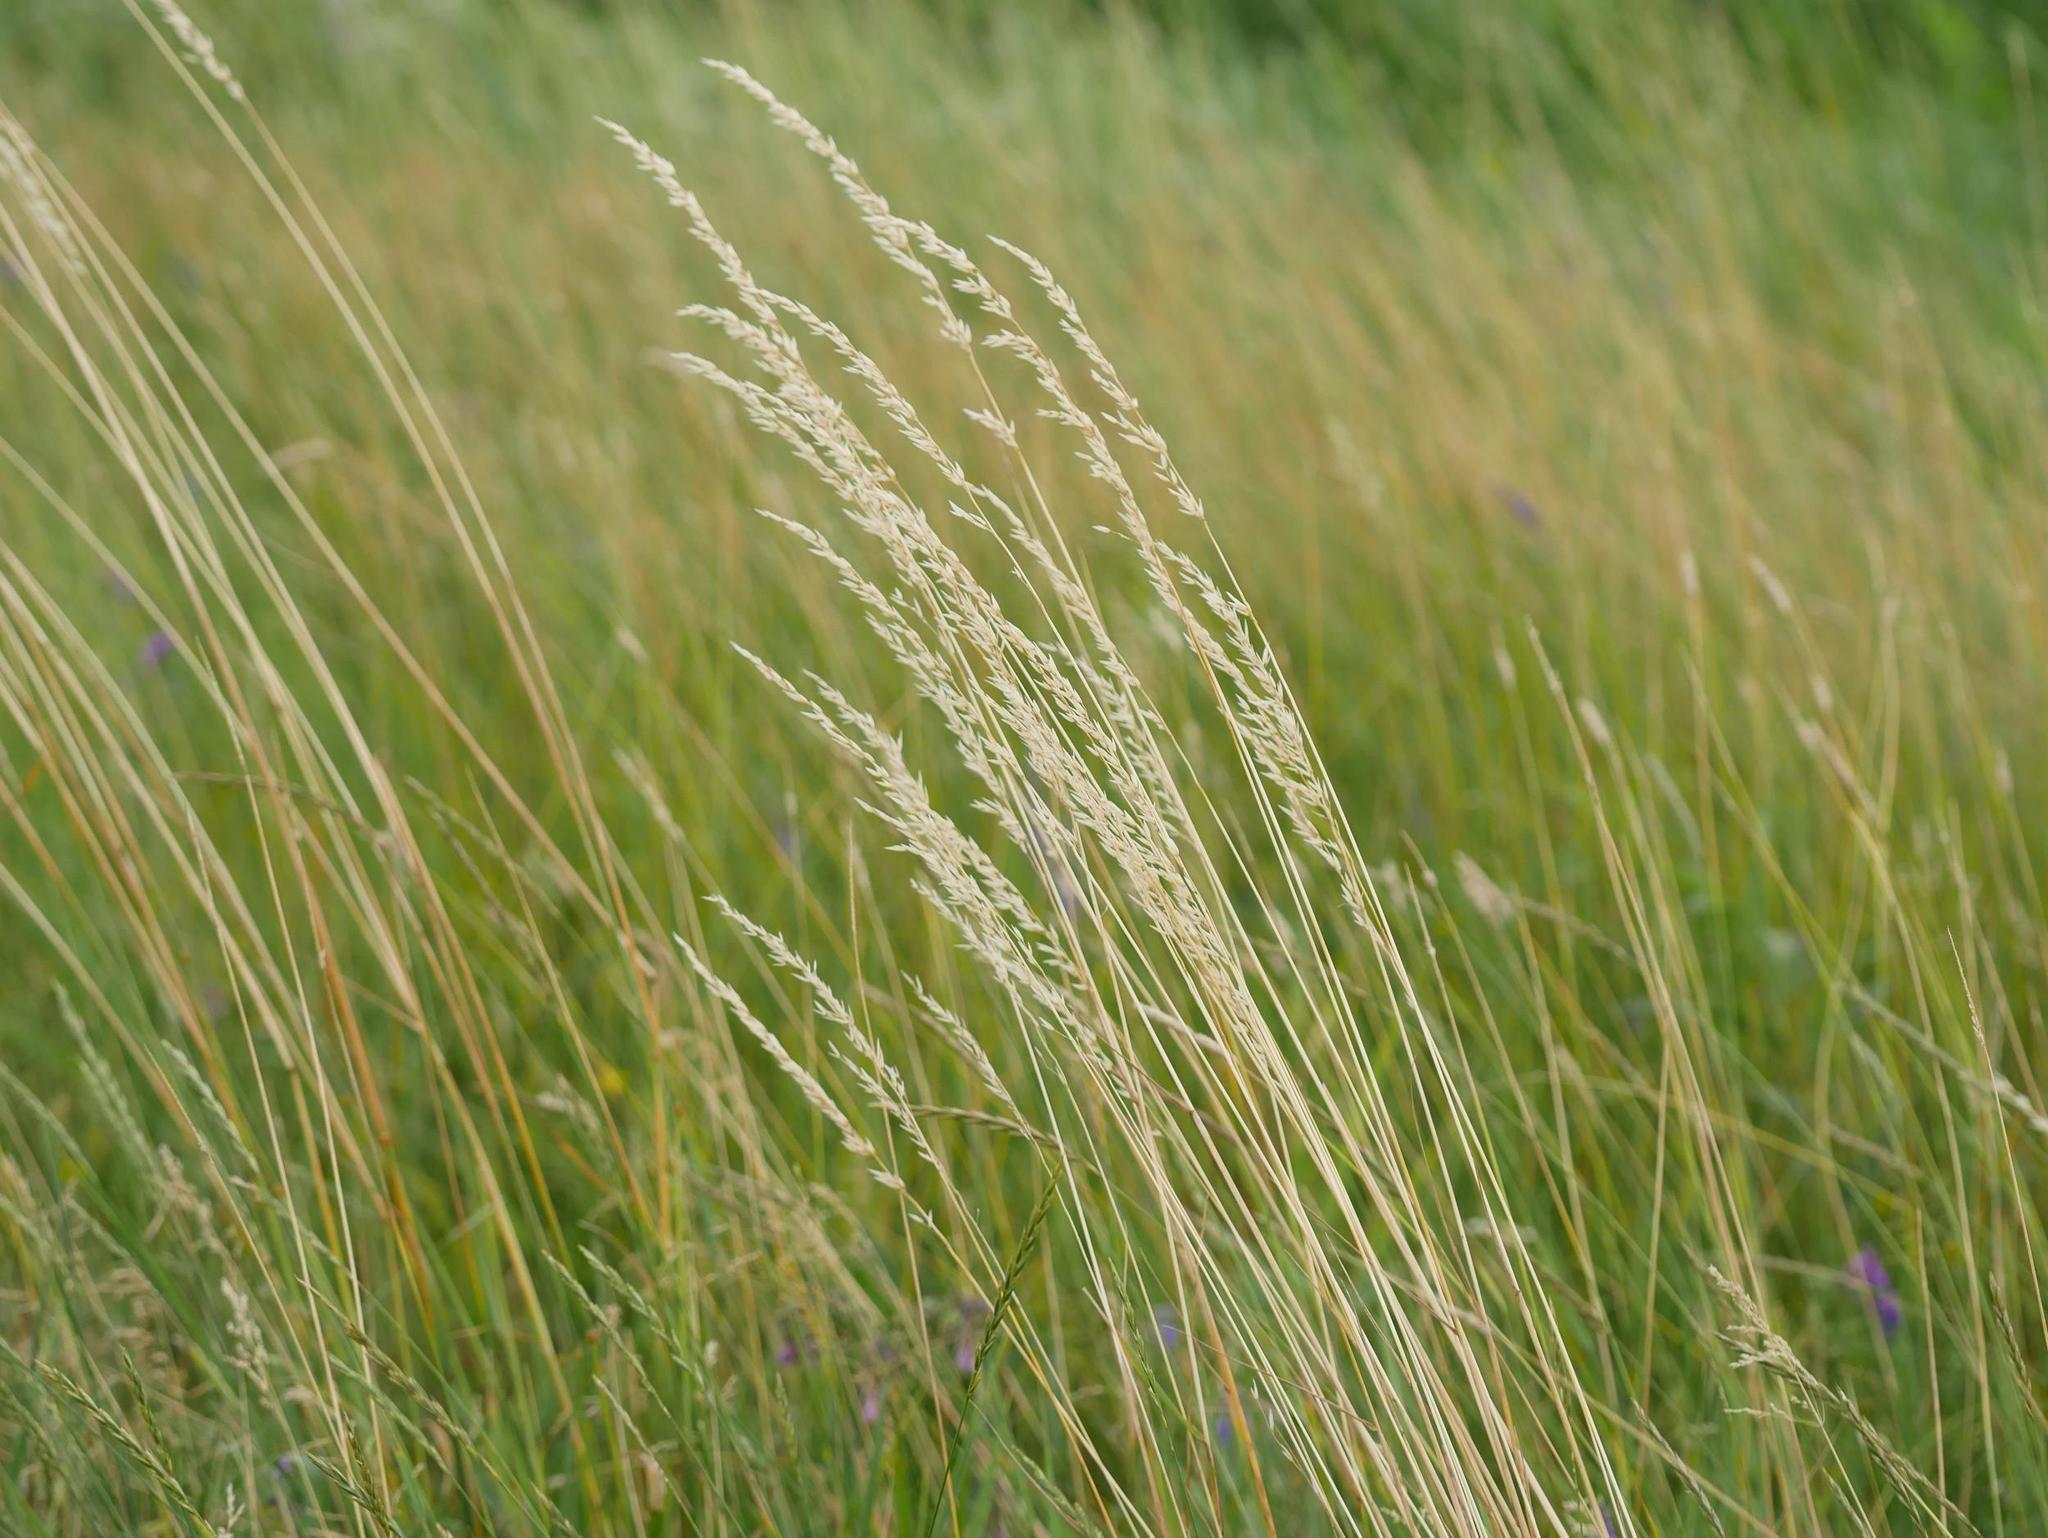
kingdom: Plantae
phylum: Tracheophyta
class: Liliopsida
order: Poales
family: Poaceae
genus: Arrhenatherum
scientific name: Arrhenatherum elatius
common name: Tall oatgrass
